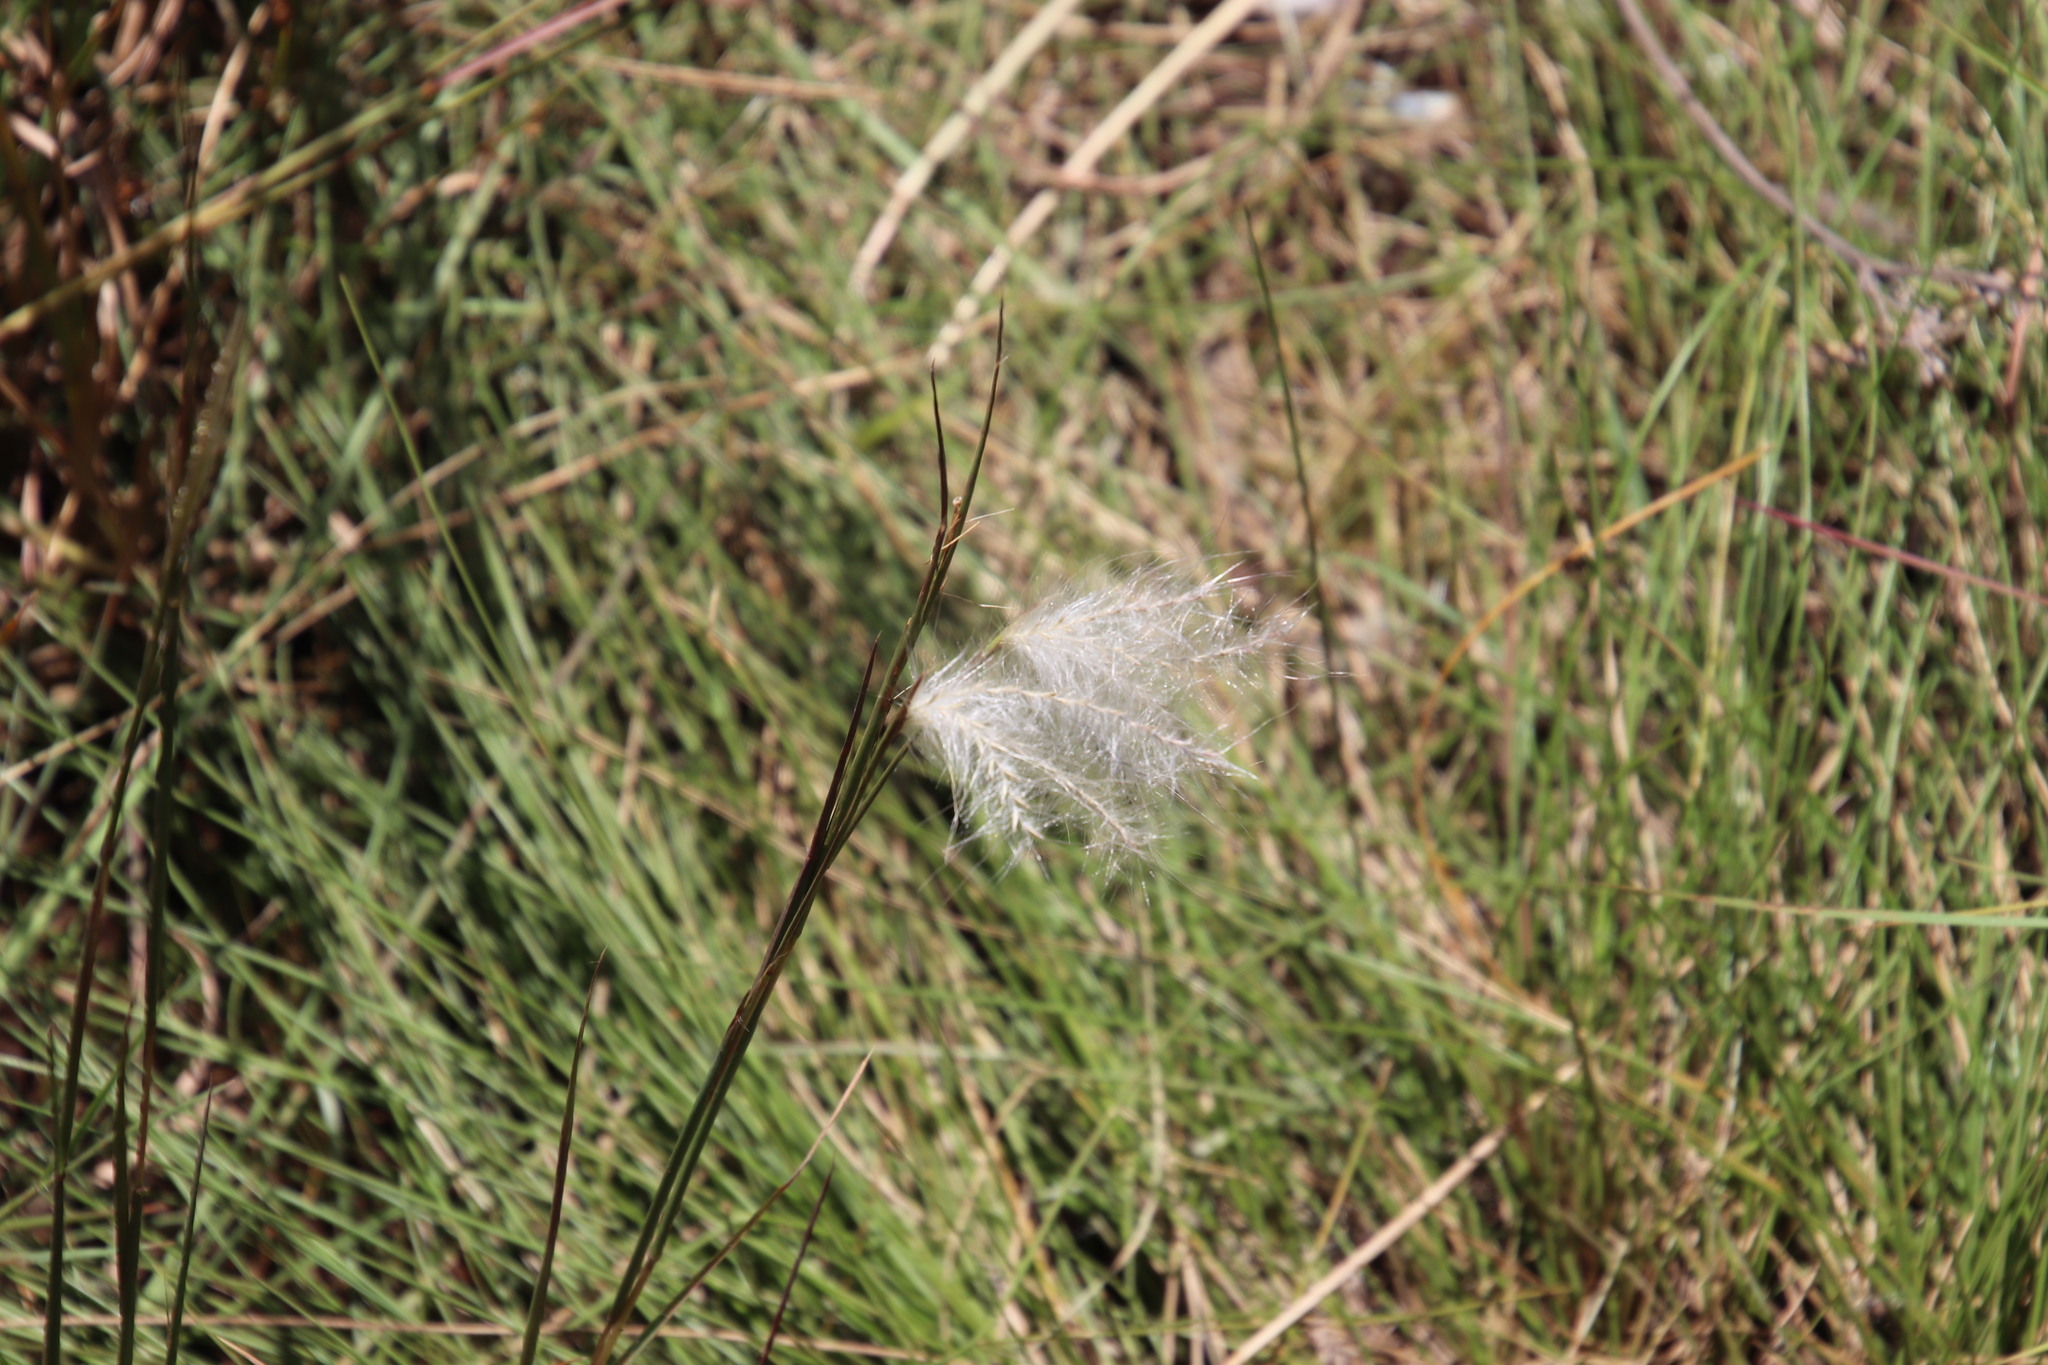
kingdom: Plantae
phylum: Tracheophyta
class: Liliopsida
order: Poales
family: Poaceae
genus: Andropogon
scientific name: Andropogon eucomus
